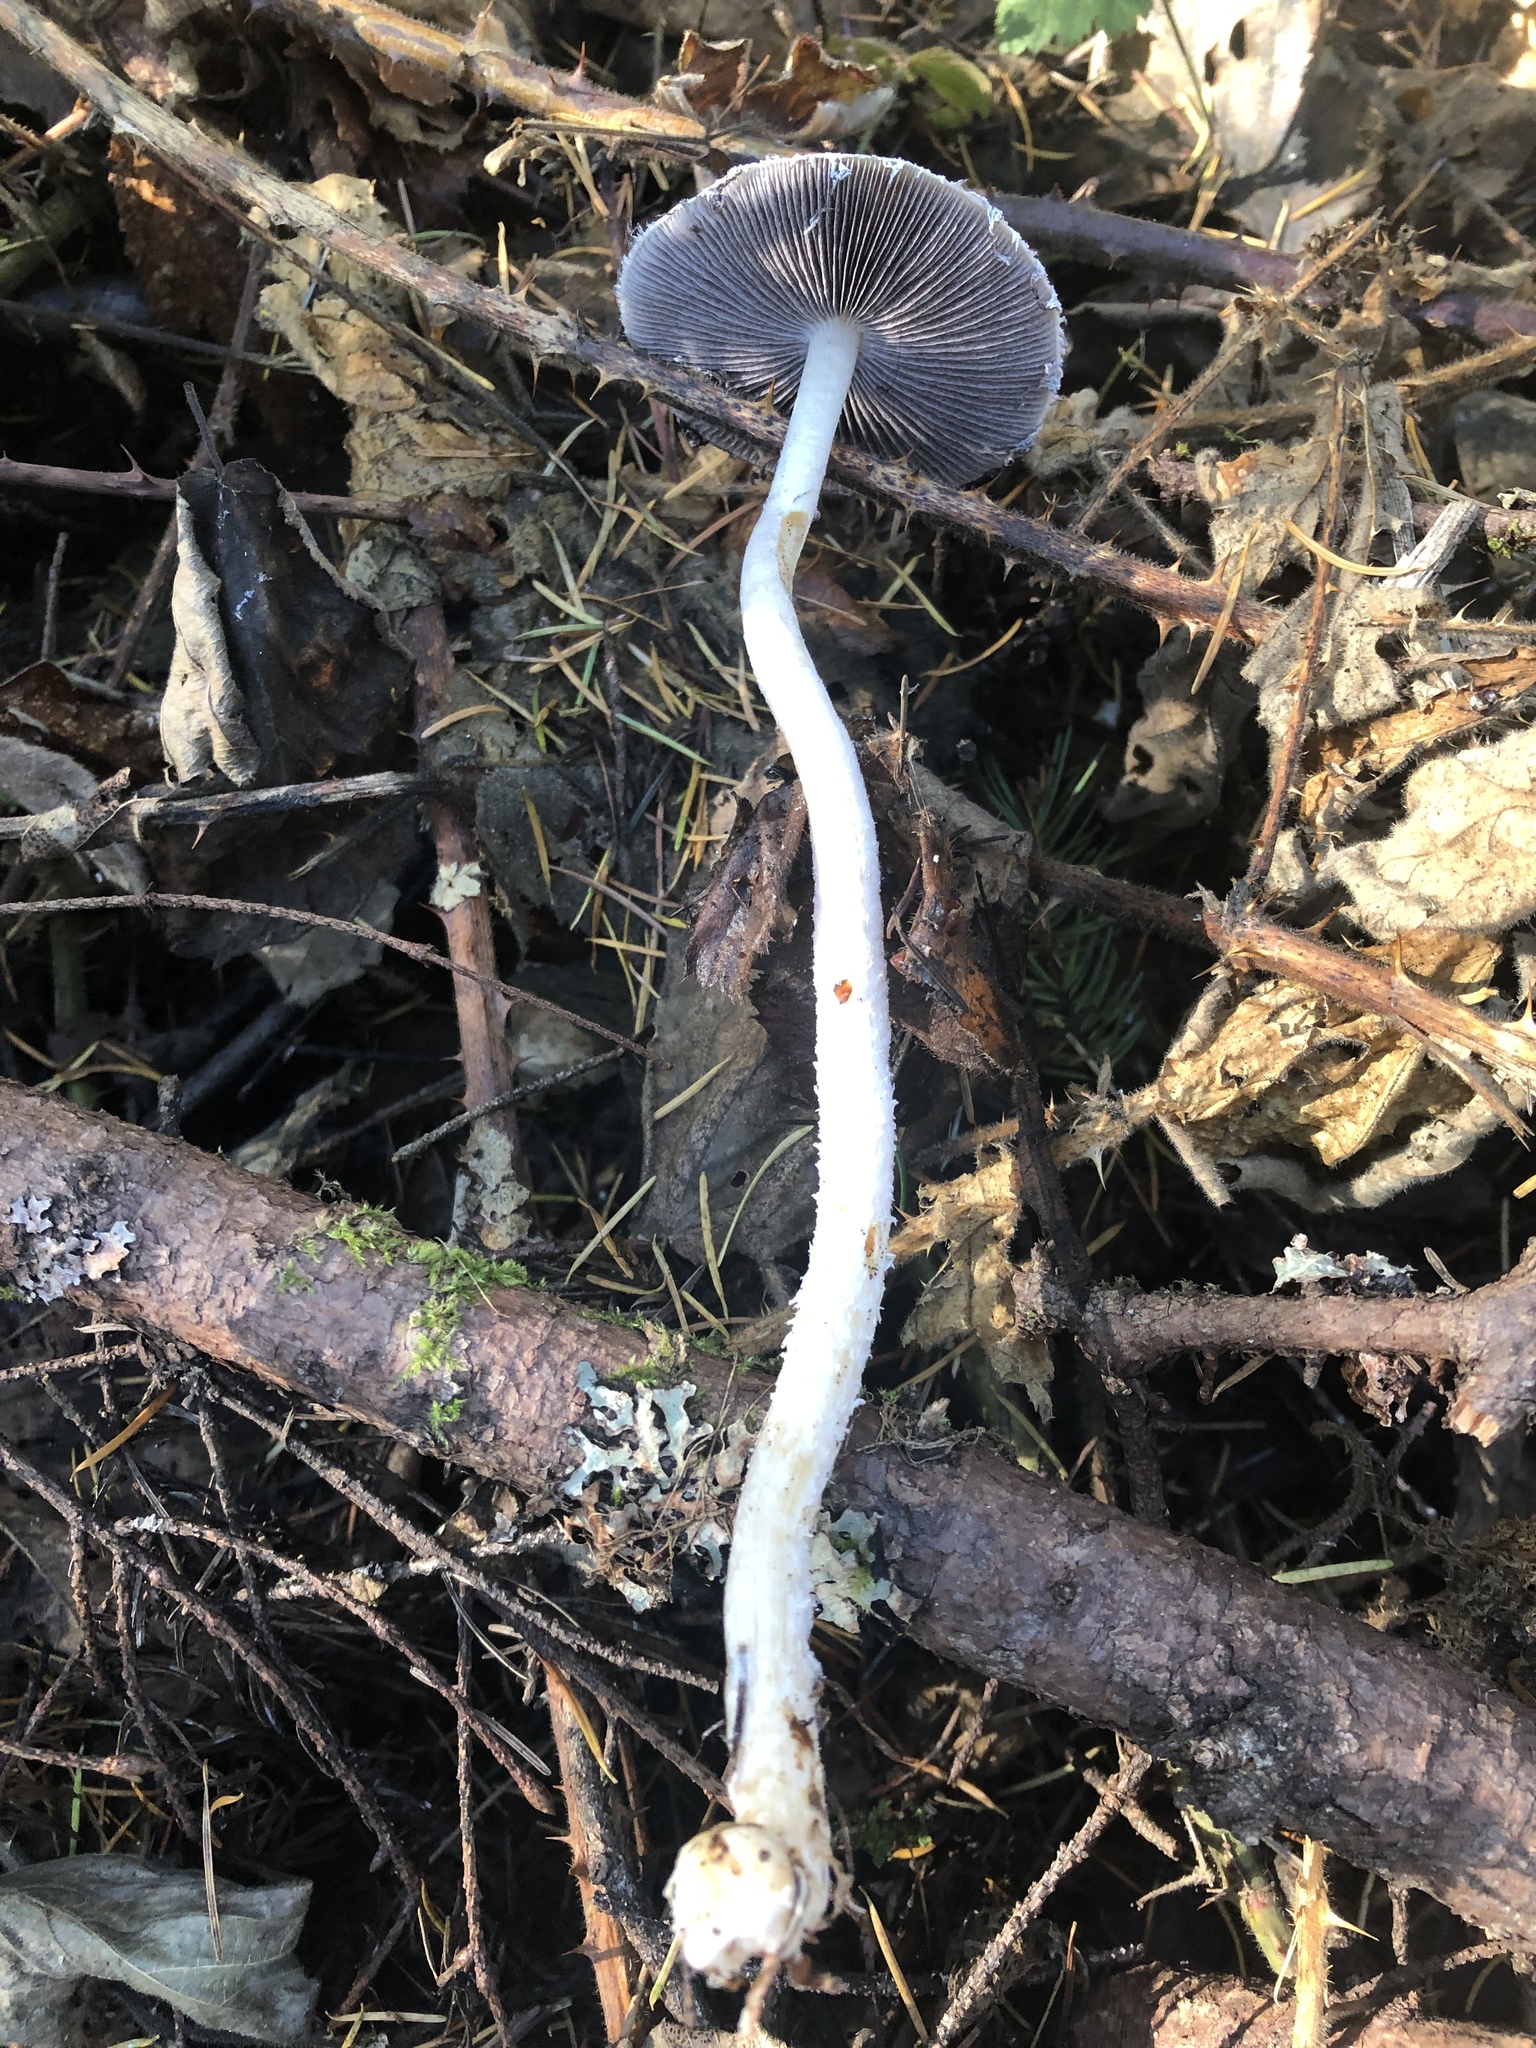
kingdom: Fungi
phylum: Basidiomycota
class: Agaricomycetes
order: Agaricales
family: Strophariaceae
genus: Stropharia
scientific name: Stropharia ambigua
